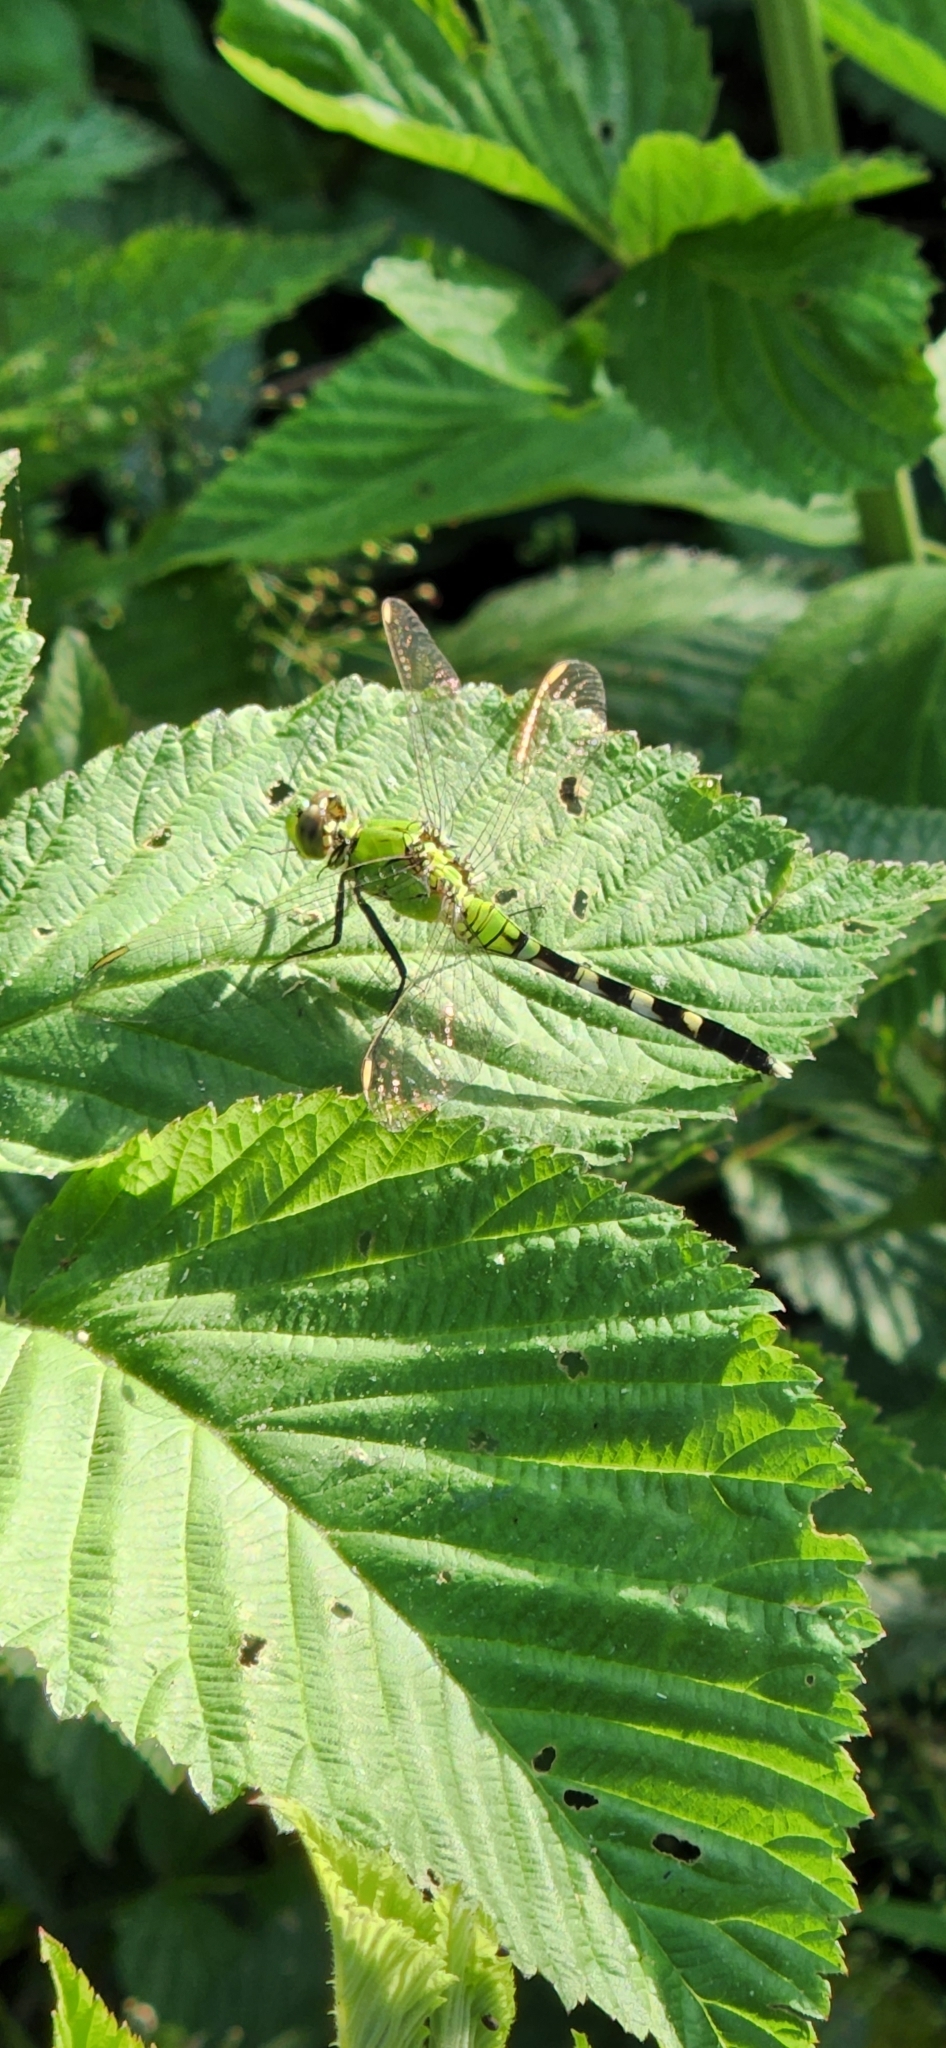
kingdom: Animalia
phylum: Arthropoda
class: Insecta
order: Odonata
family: Libellulidae
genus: Erythemis
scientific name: Erythemis simplicicollis
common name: Eastern pondhawk
